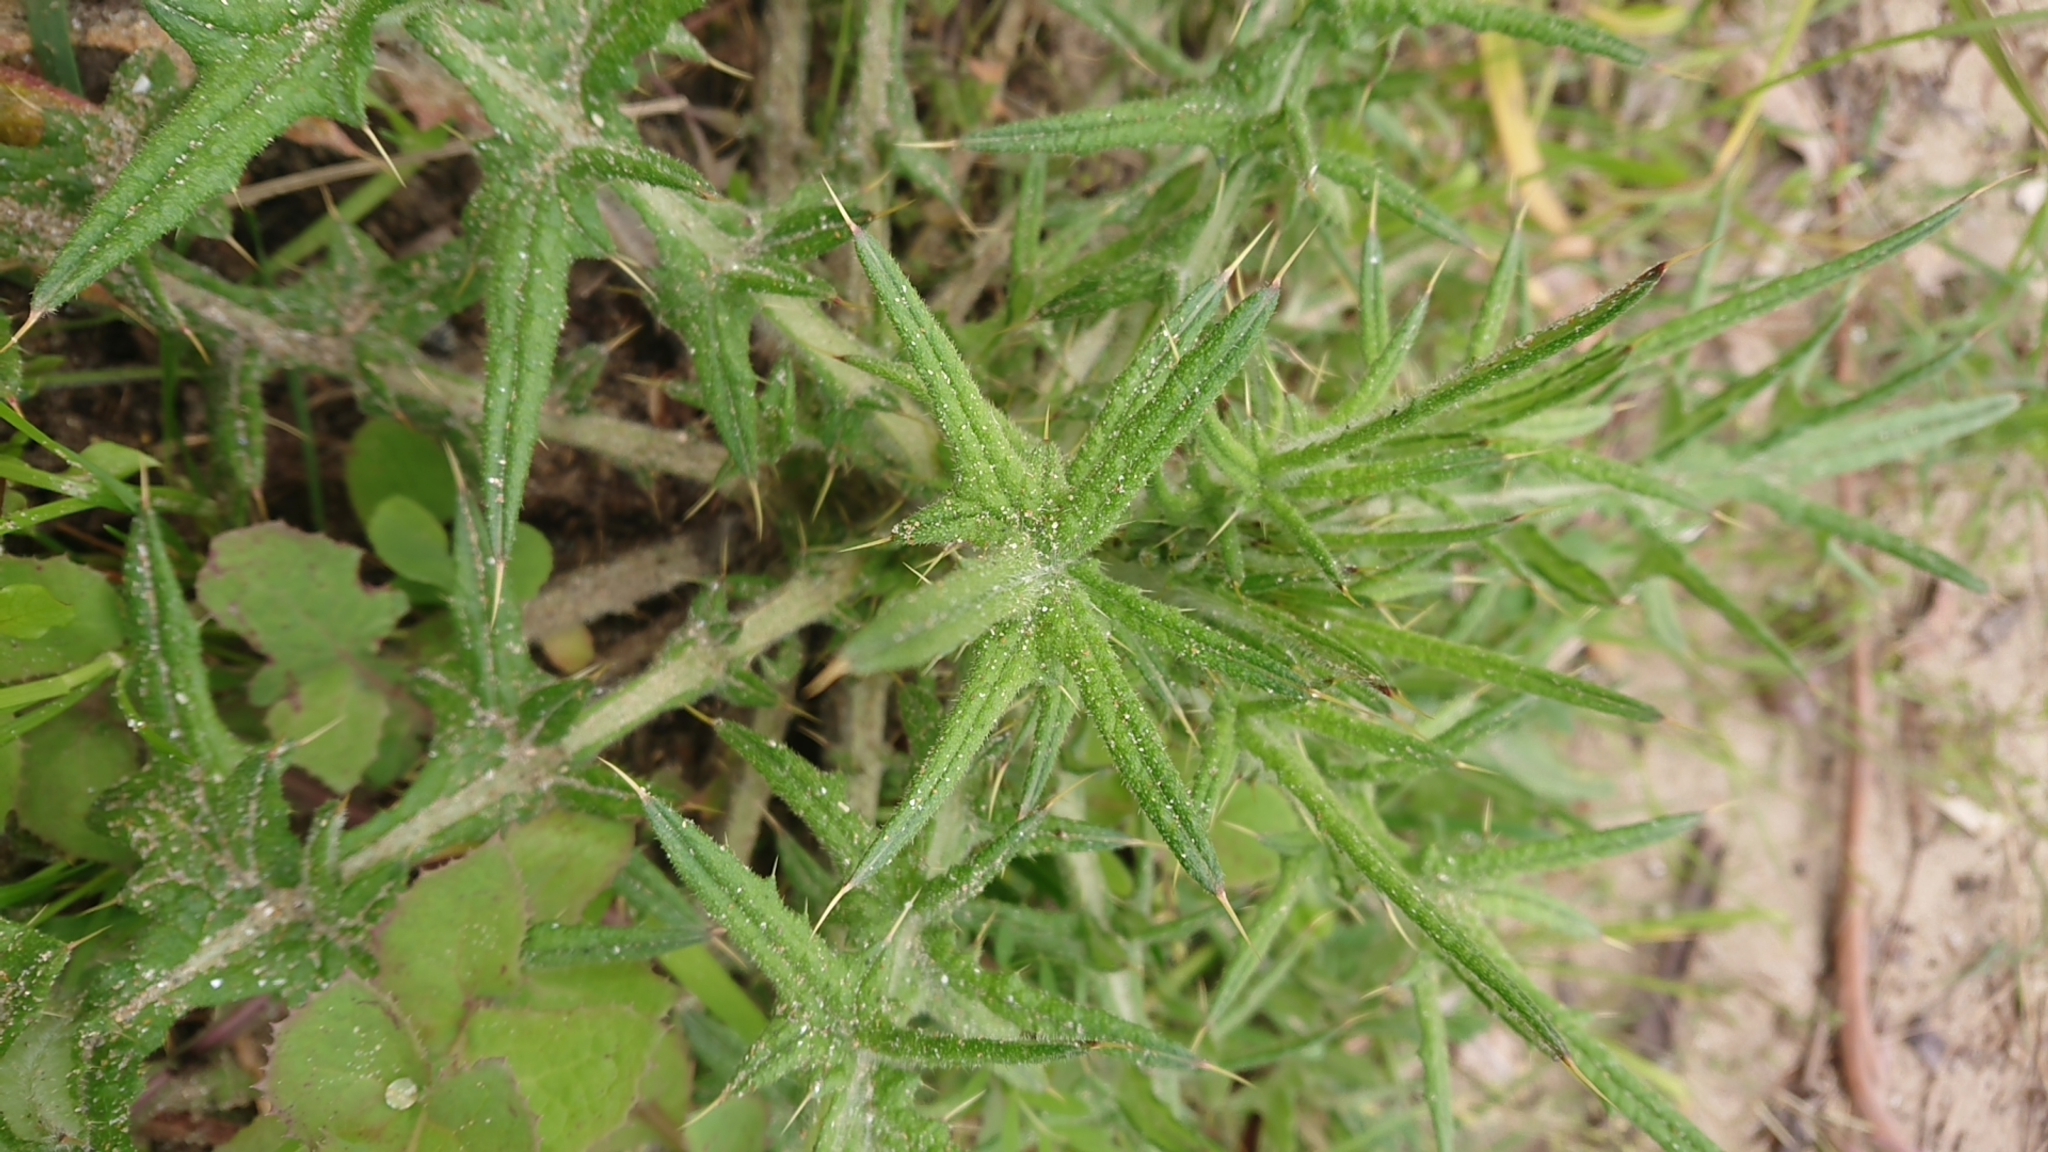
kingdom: Plantae
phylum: Tracheophyta
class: Magnoliopsida
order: Asterales
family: Asteraceae
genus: Cirsium
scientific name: Cirsium vulgare
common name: Bull thistle
